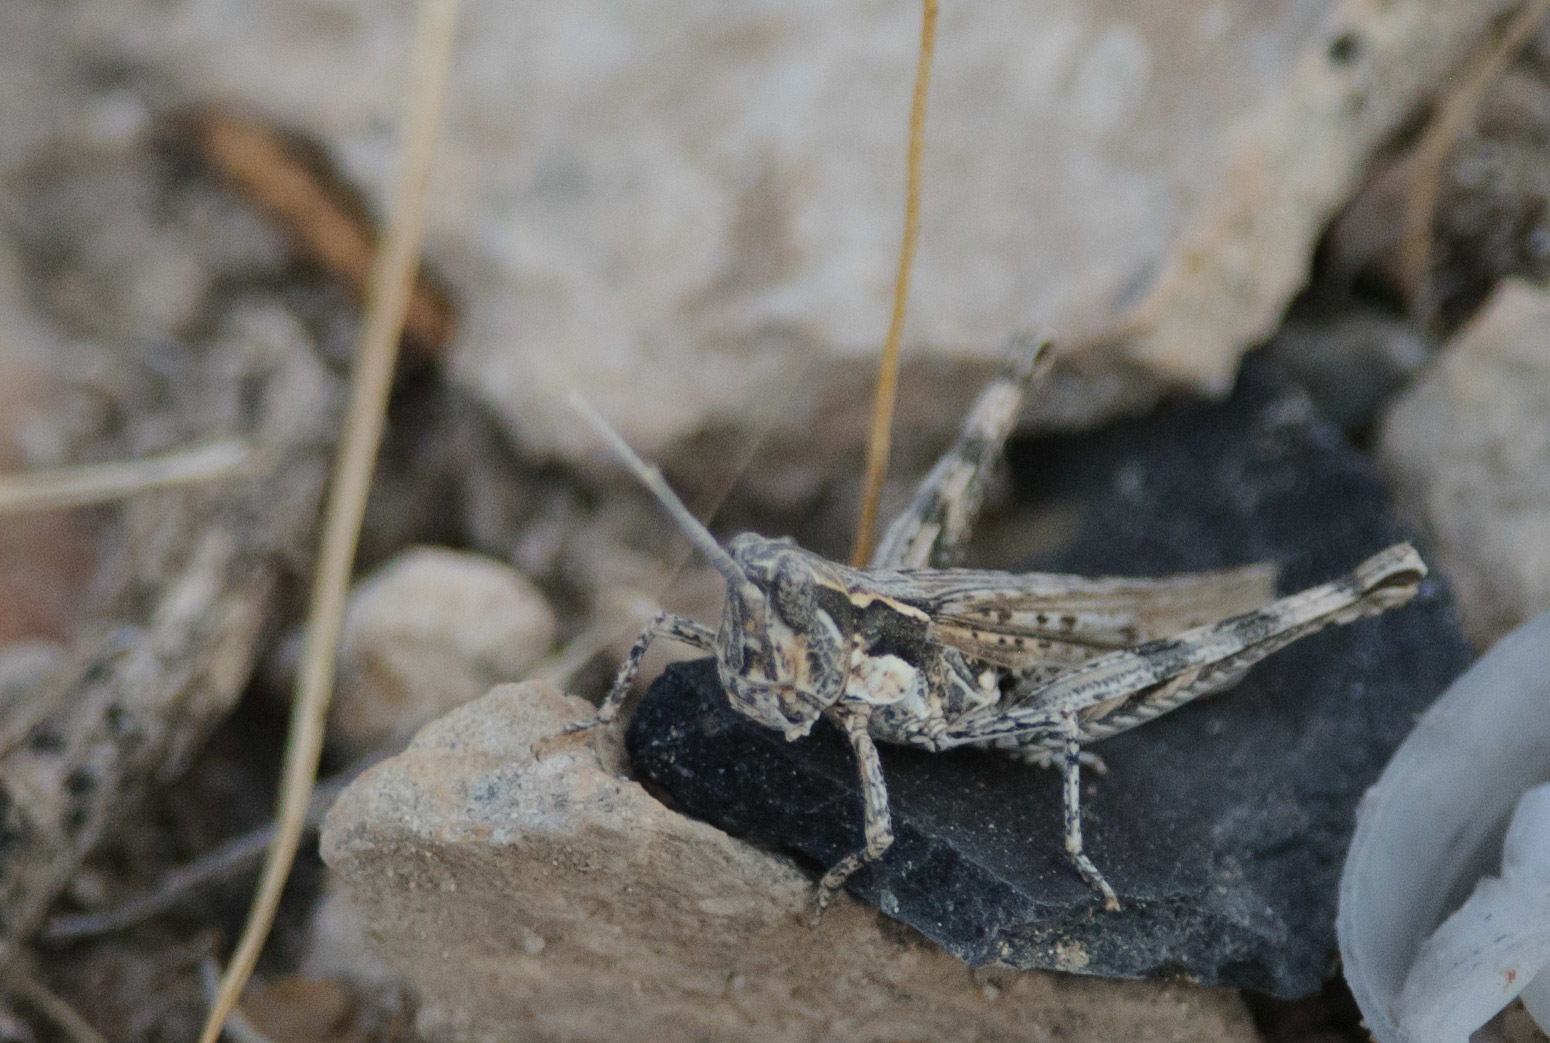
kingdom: Animalia
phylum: Arthropoda
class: Insecta
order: Orthoptera
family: Acrididae
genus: Cordillacris
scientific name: Cordillacris occipitalis
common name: Spotted-winged grasshopper
